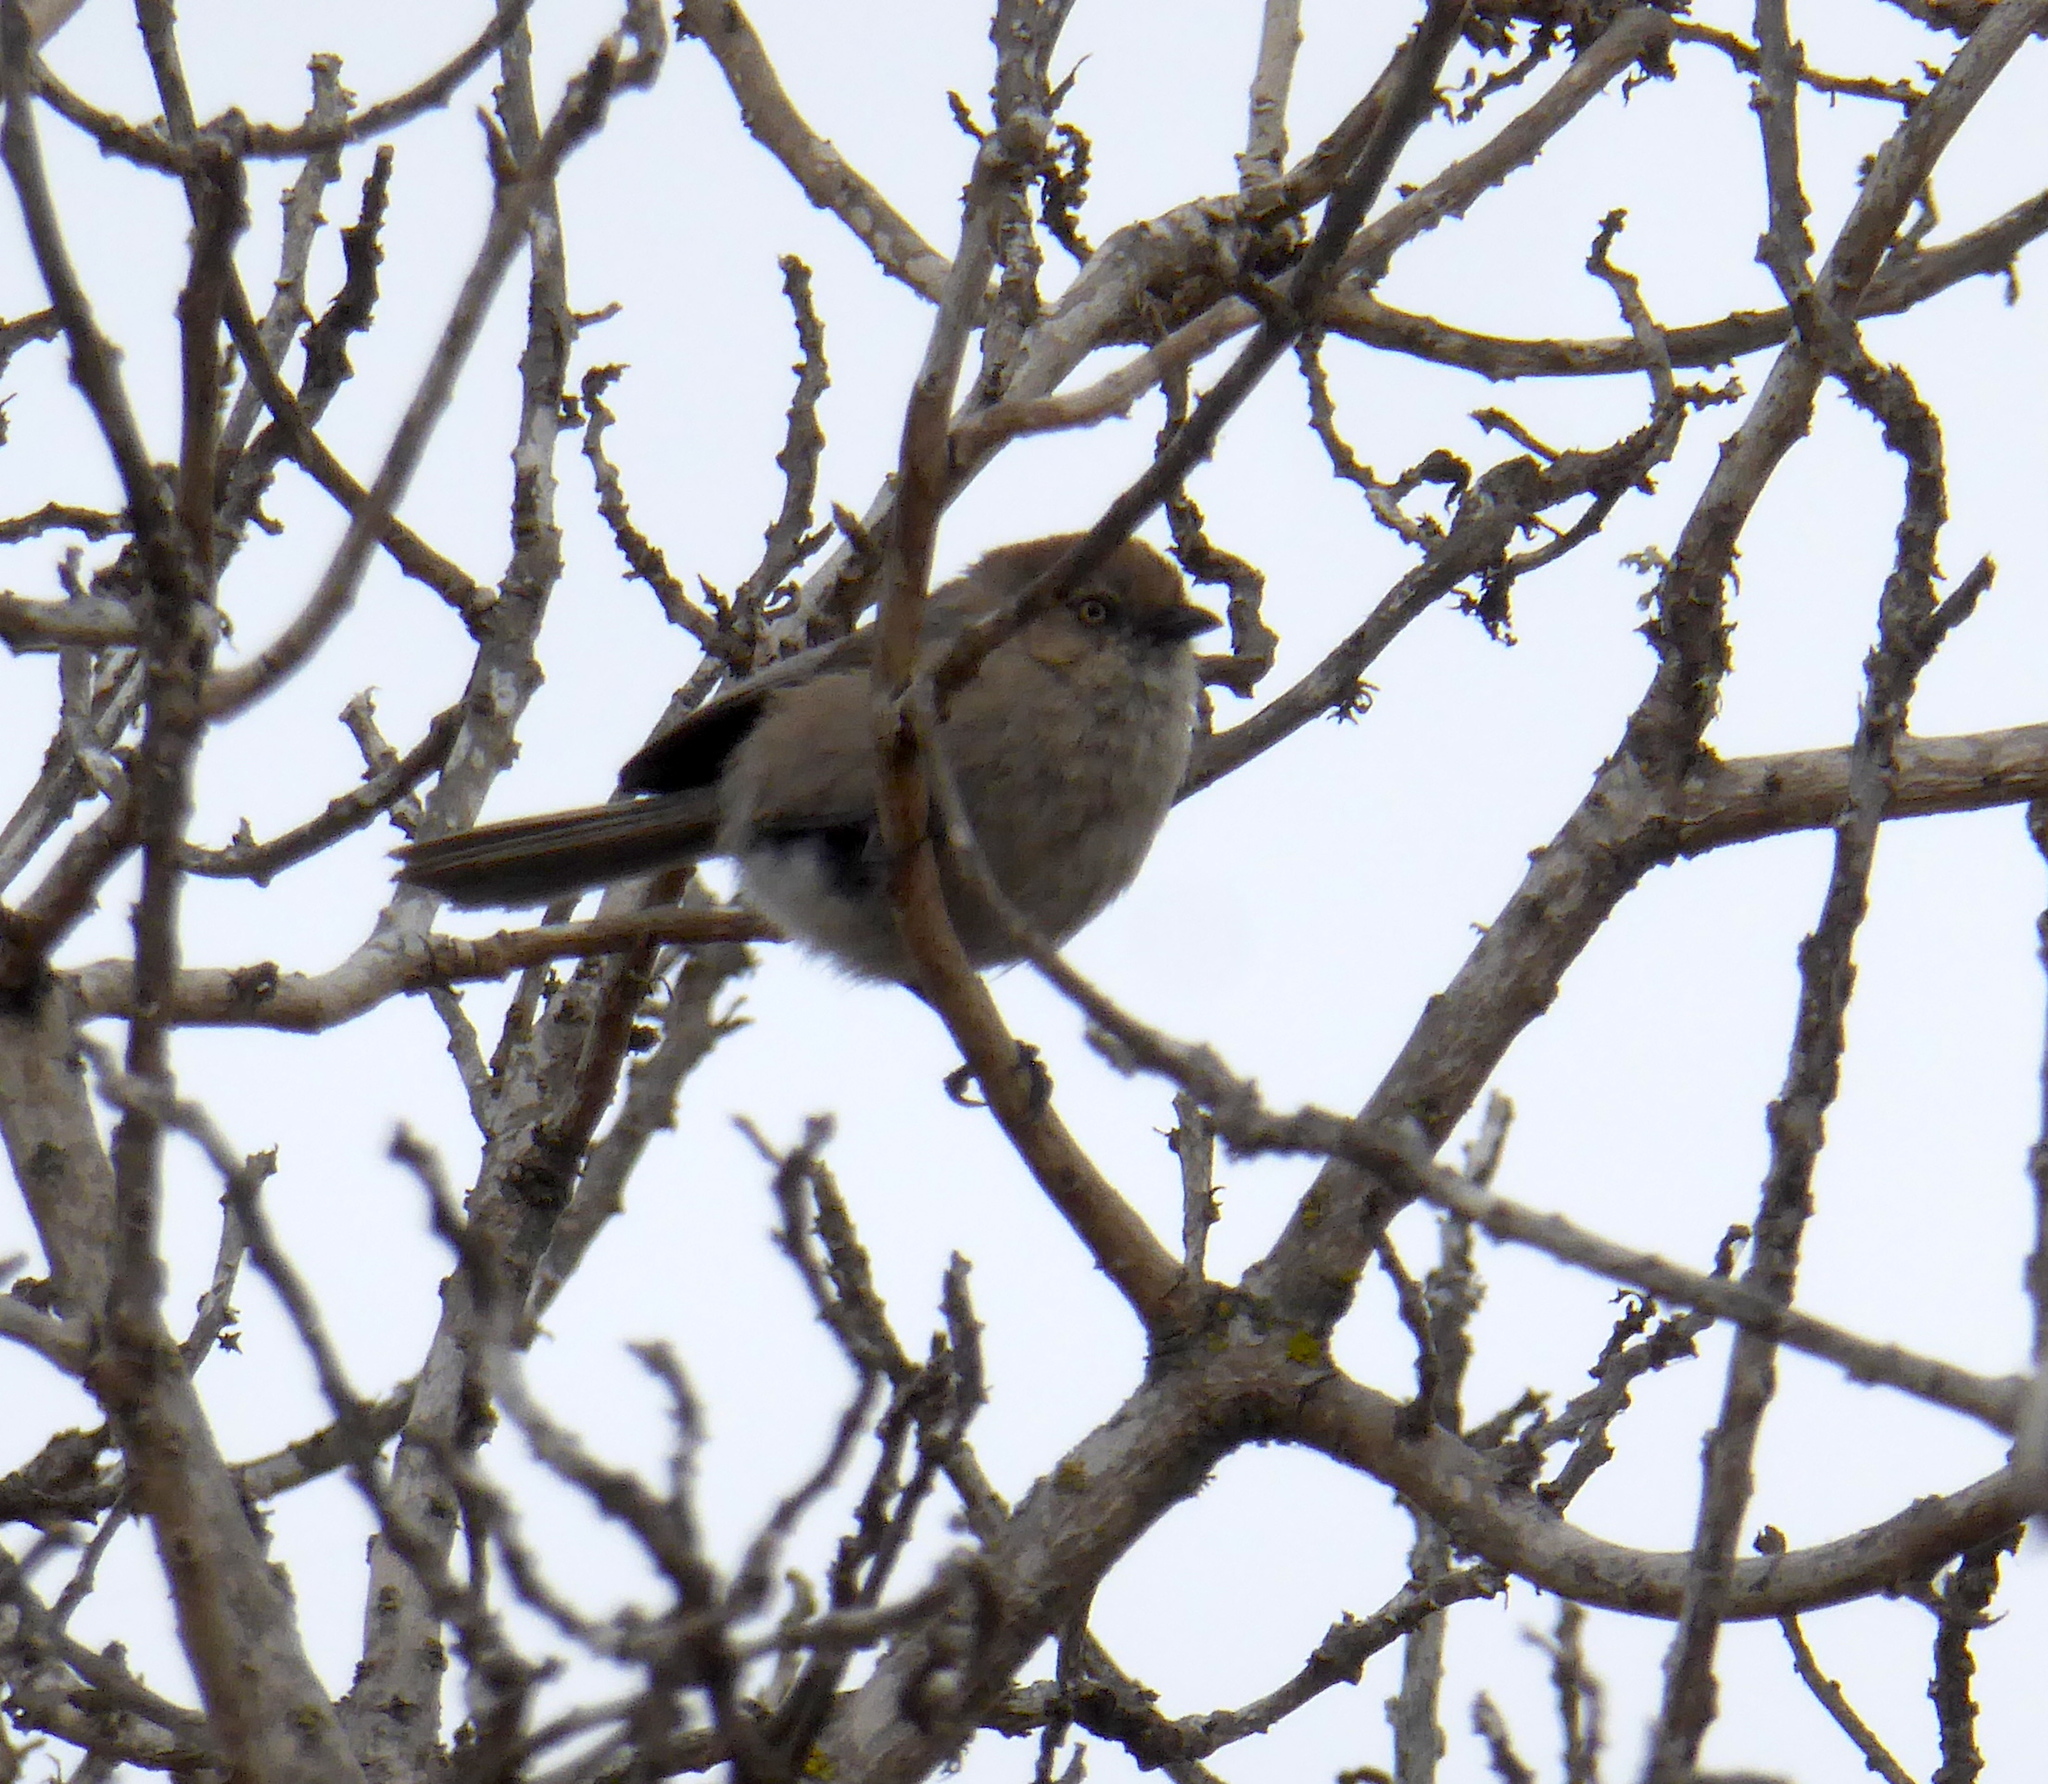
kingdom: Animalia
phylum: Chordata
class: Aves
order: Passeriformes
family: Aegithalidae
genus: Psaltriparus
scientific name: Psaltriparus minimus
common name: American bushtit
